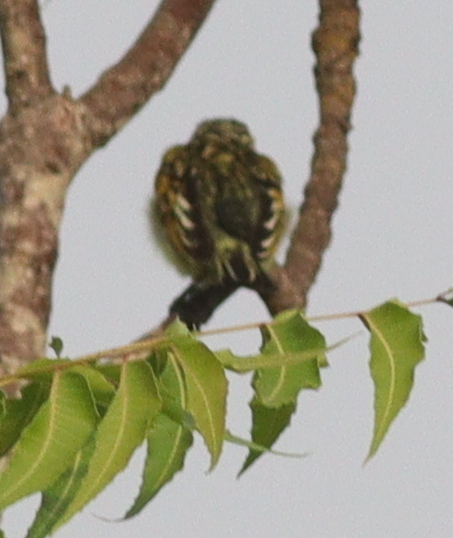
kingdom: Animalia
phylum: Chordata
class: Aves
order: Piciformes
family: Lybiidae
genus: Pogoniulus
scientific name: Pogoniulus scolopaceus
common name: Speckled tinkerbird
